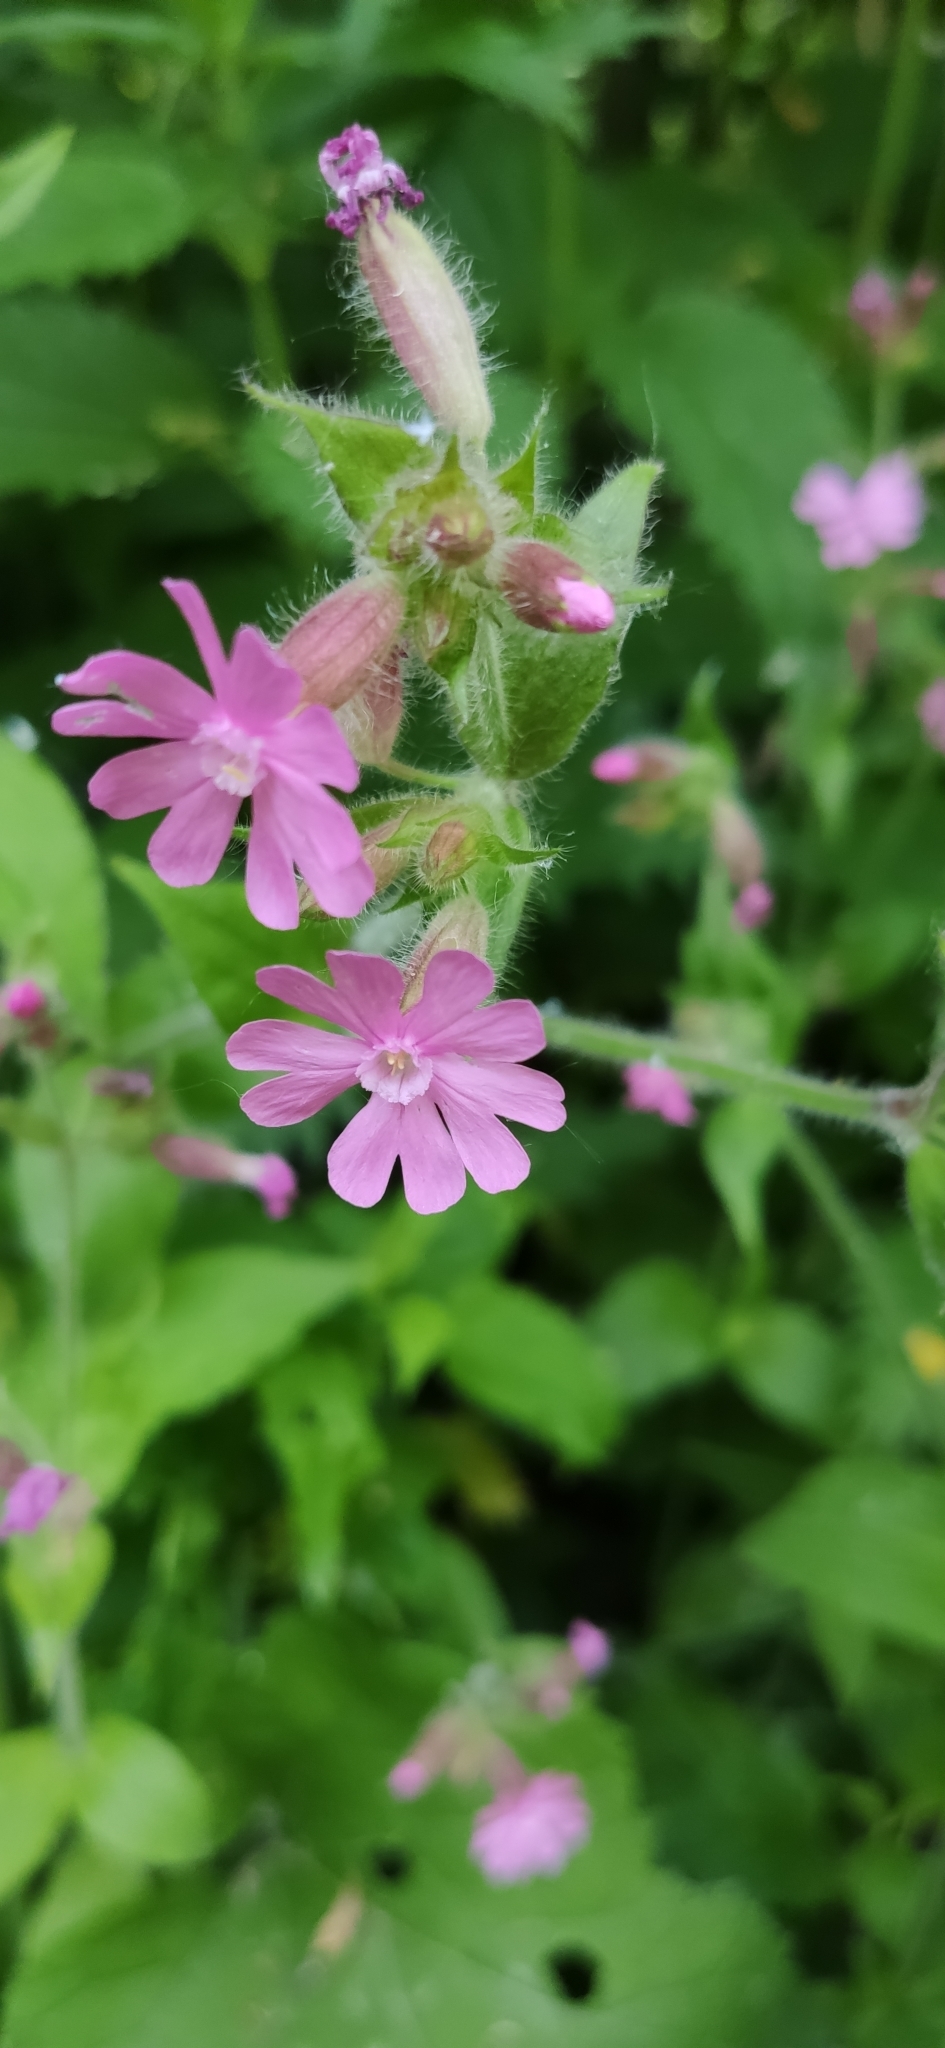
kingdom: Plantae
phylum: Tracheophyta
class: Magnoliopsida
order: Caryophyllales
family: Caryophyllaceae
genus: Silene
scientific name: Silene dioica
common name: Red campion
